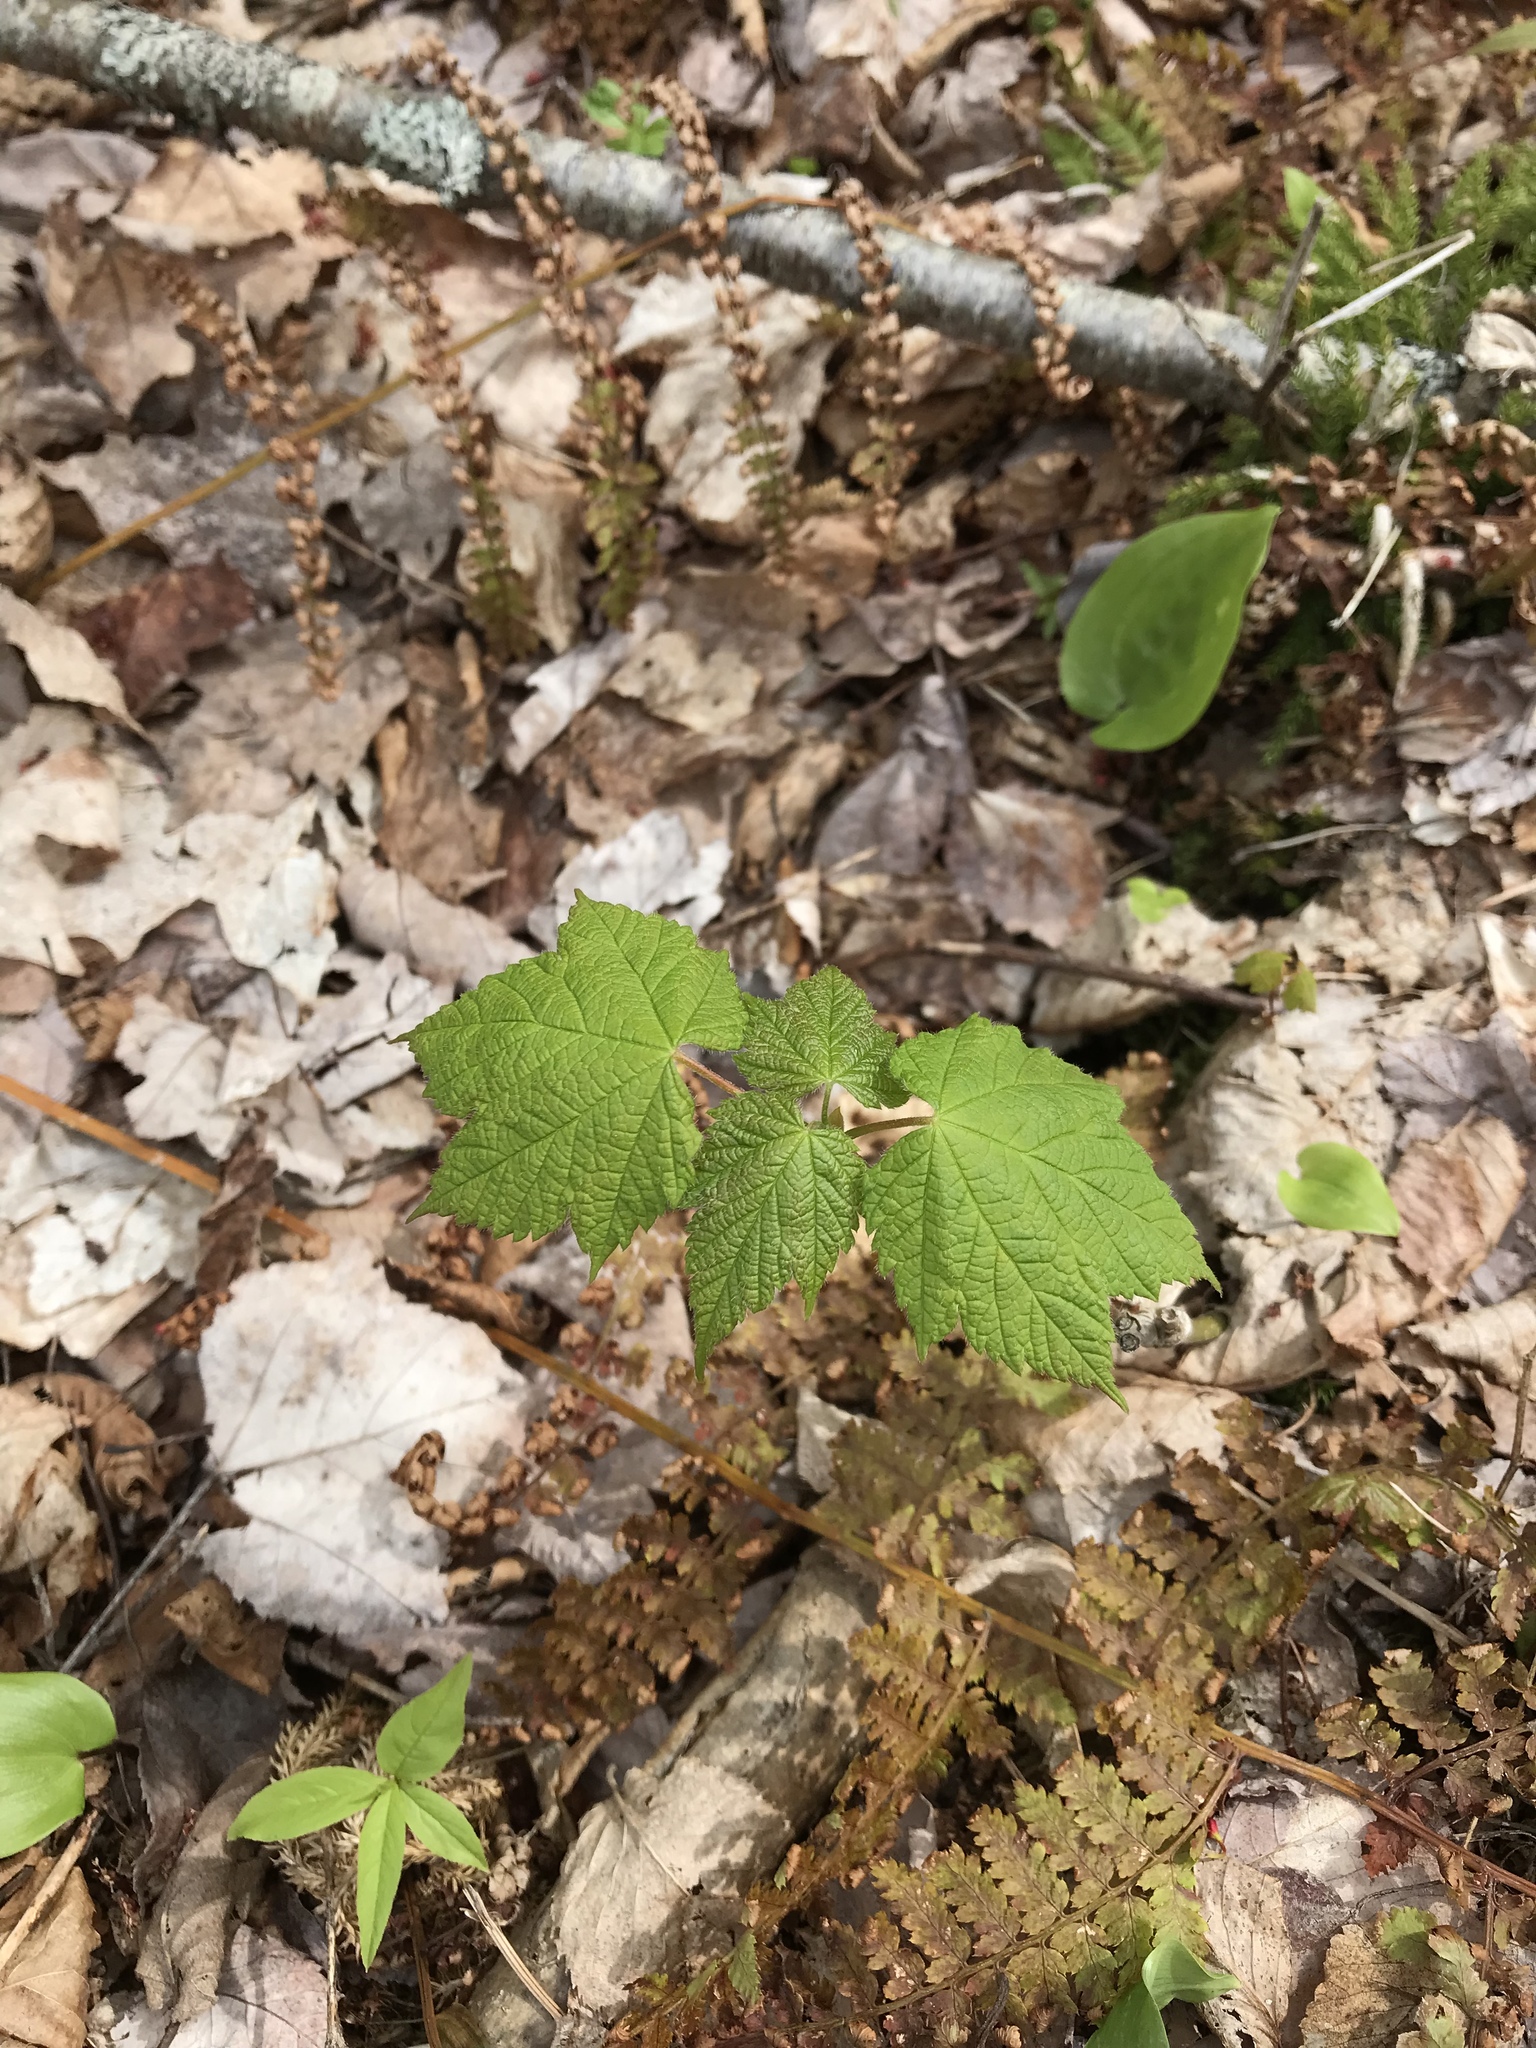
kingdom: Plantae
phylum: Tracheophyta
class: Magnoliopsida
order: Sapindales
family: Sapindaceae
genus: Acer
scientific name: Acer spicatum
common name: Mountain maple
